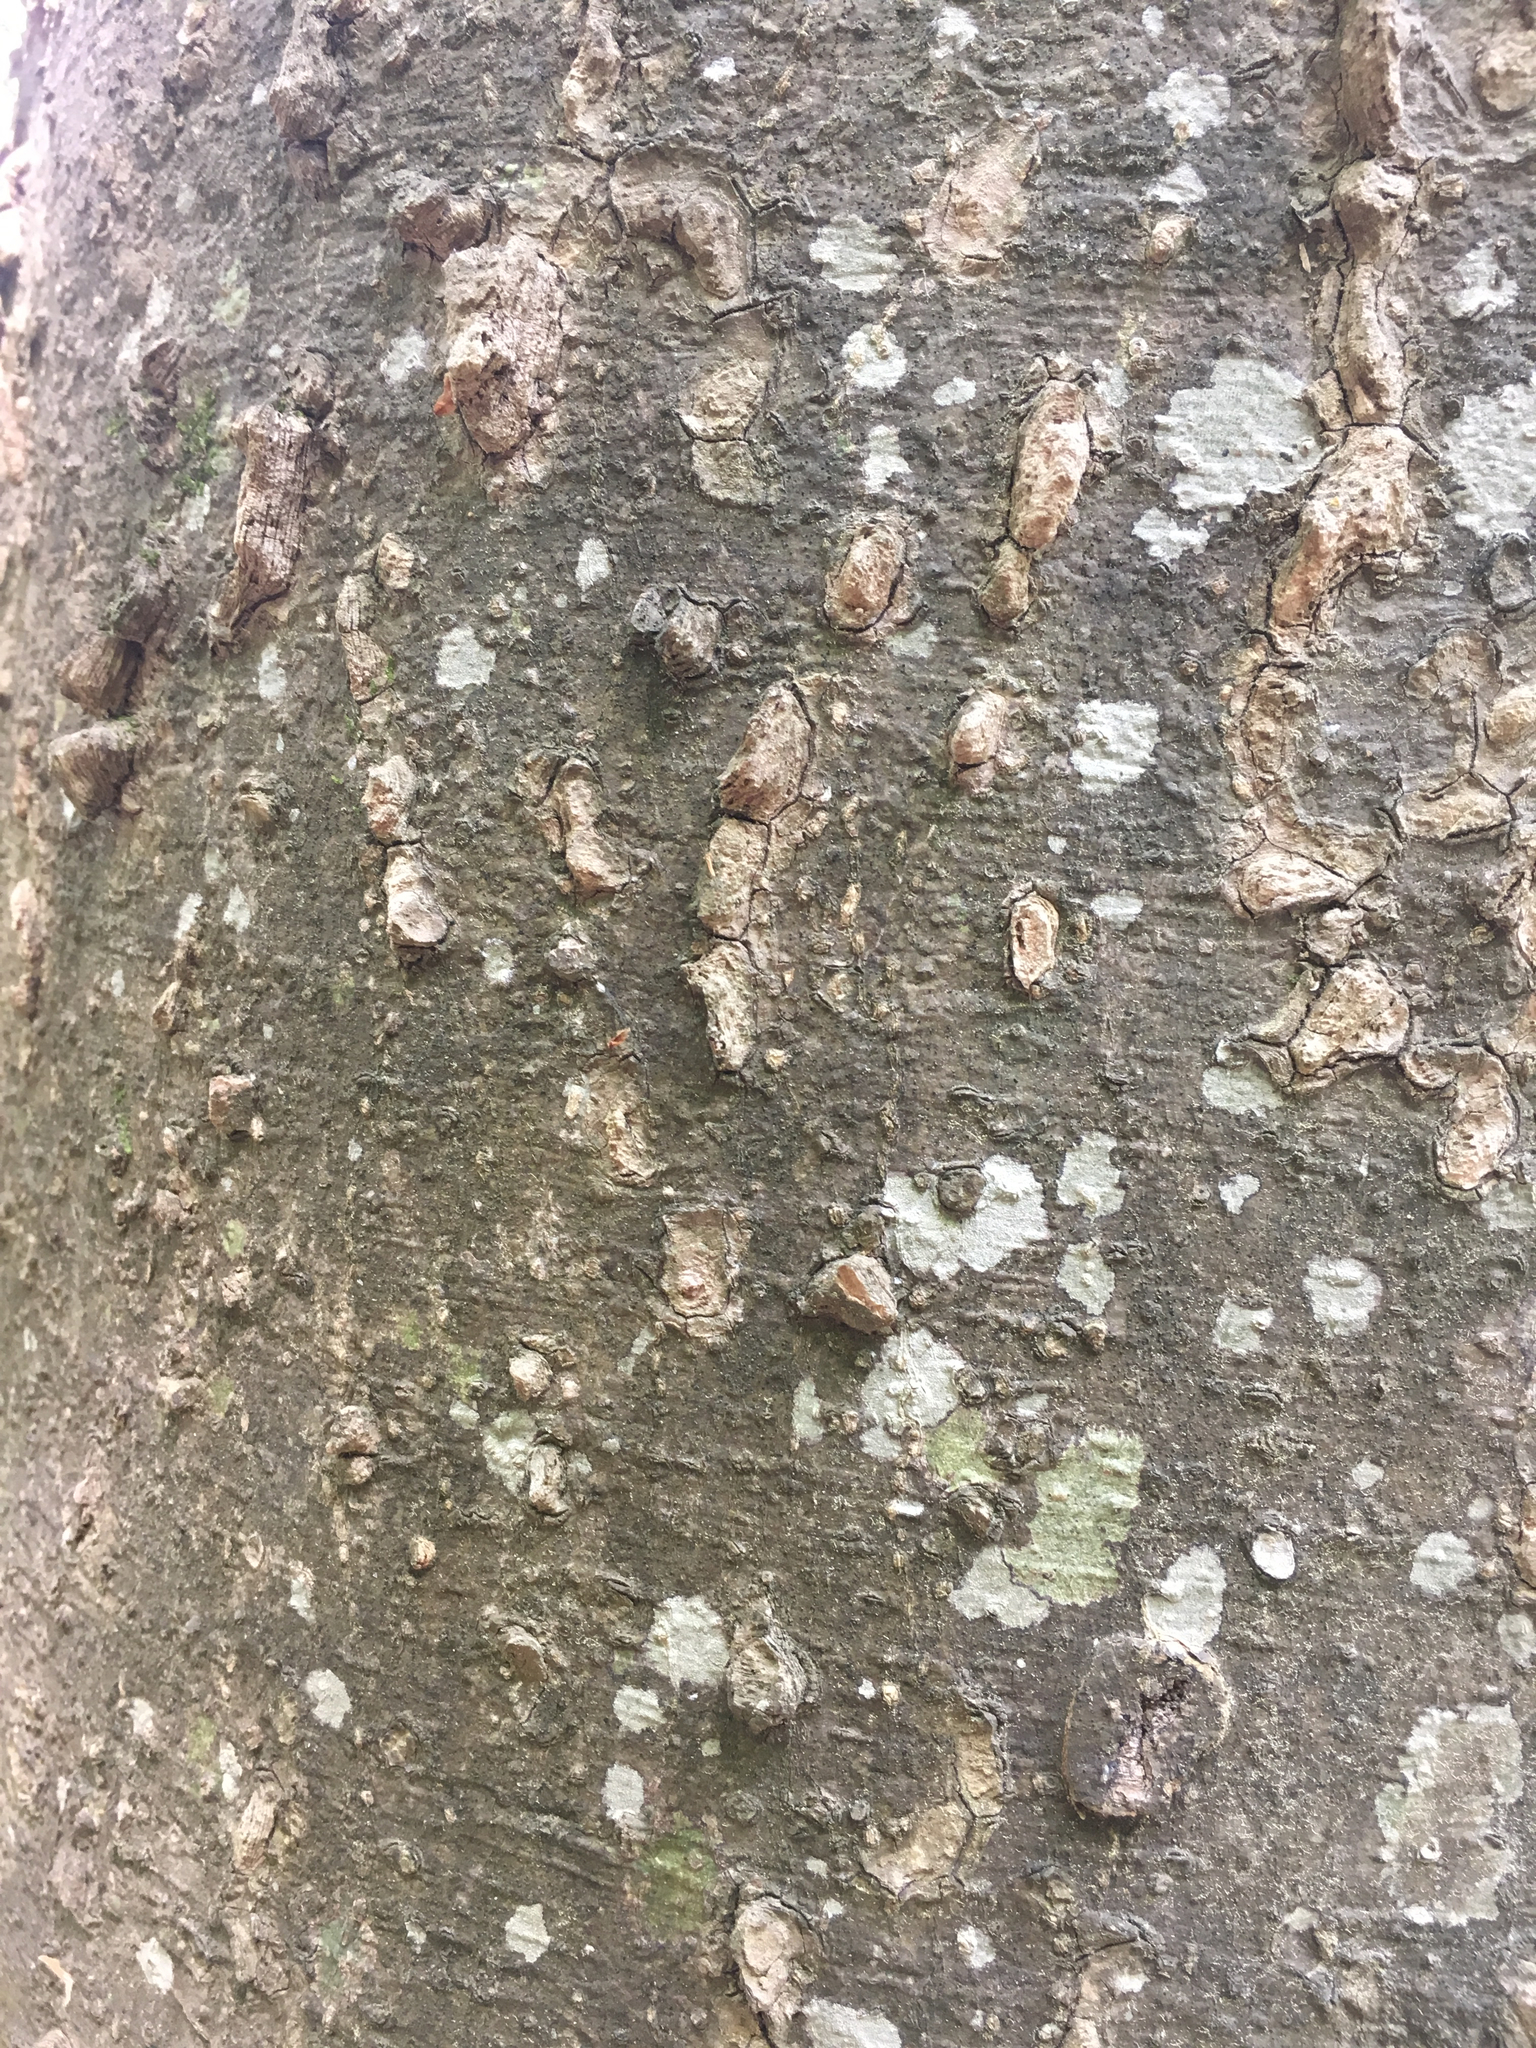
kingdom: Plantae
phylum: Tracheophyta
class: Magnoliopsida
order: Rosales
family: Cannabaceae
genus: Celtis
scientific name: Celtis laevigata
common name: Sugarberry
